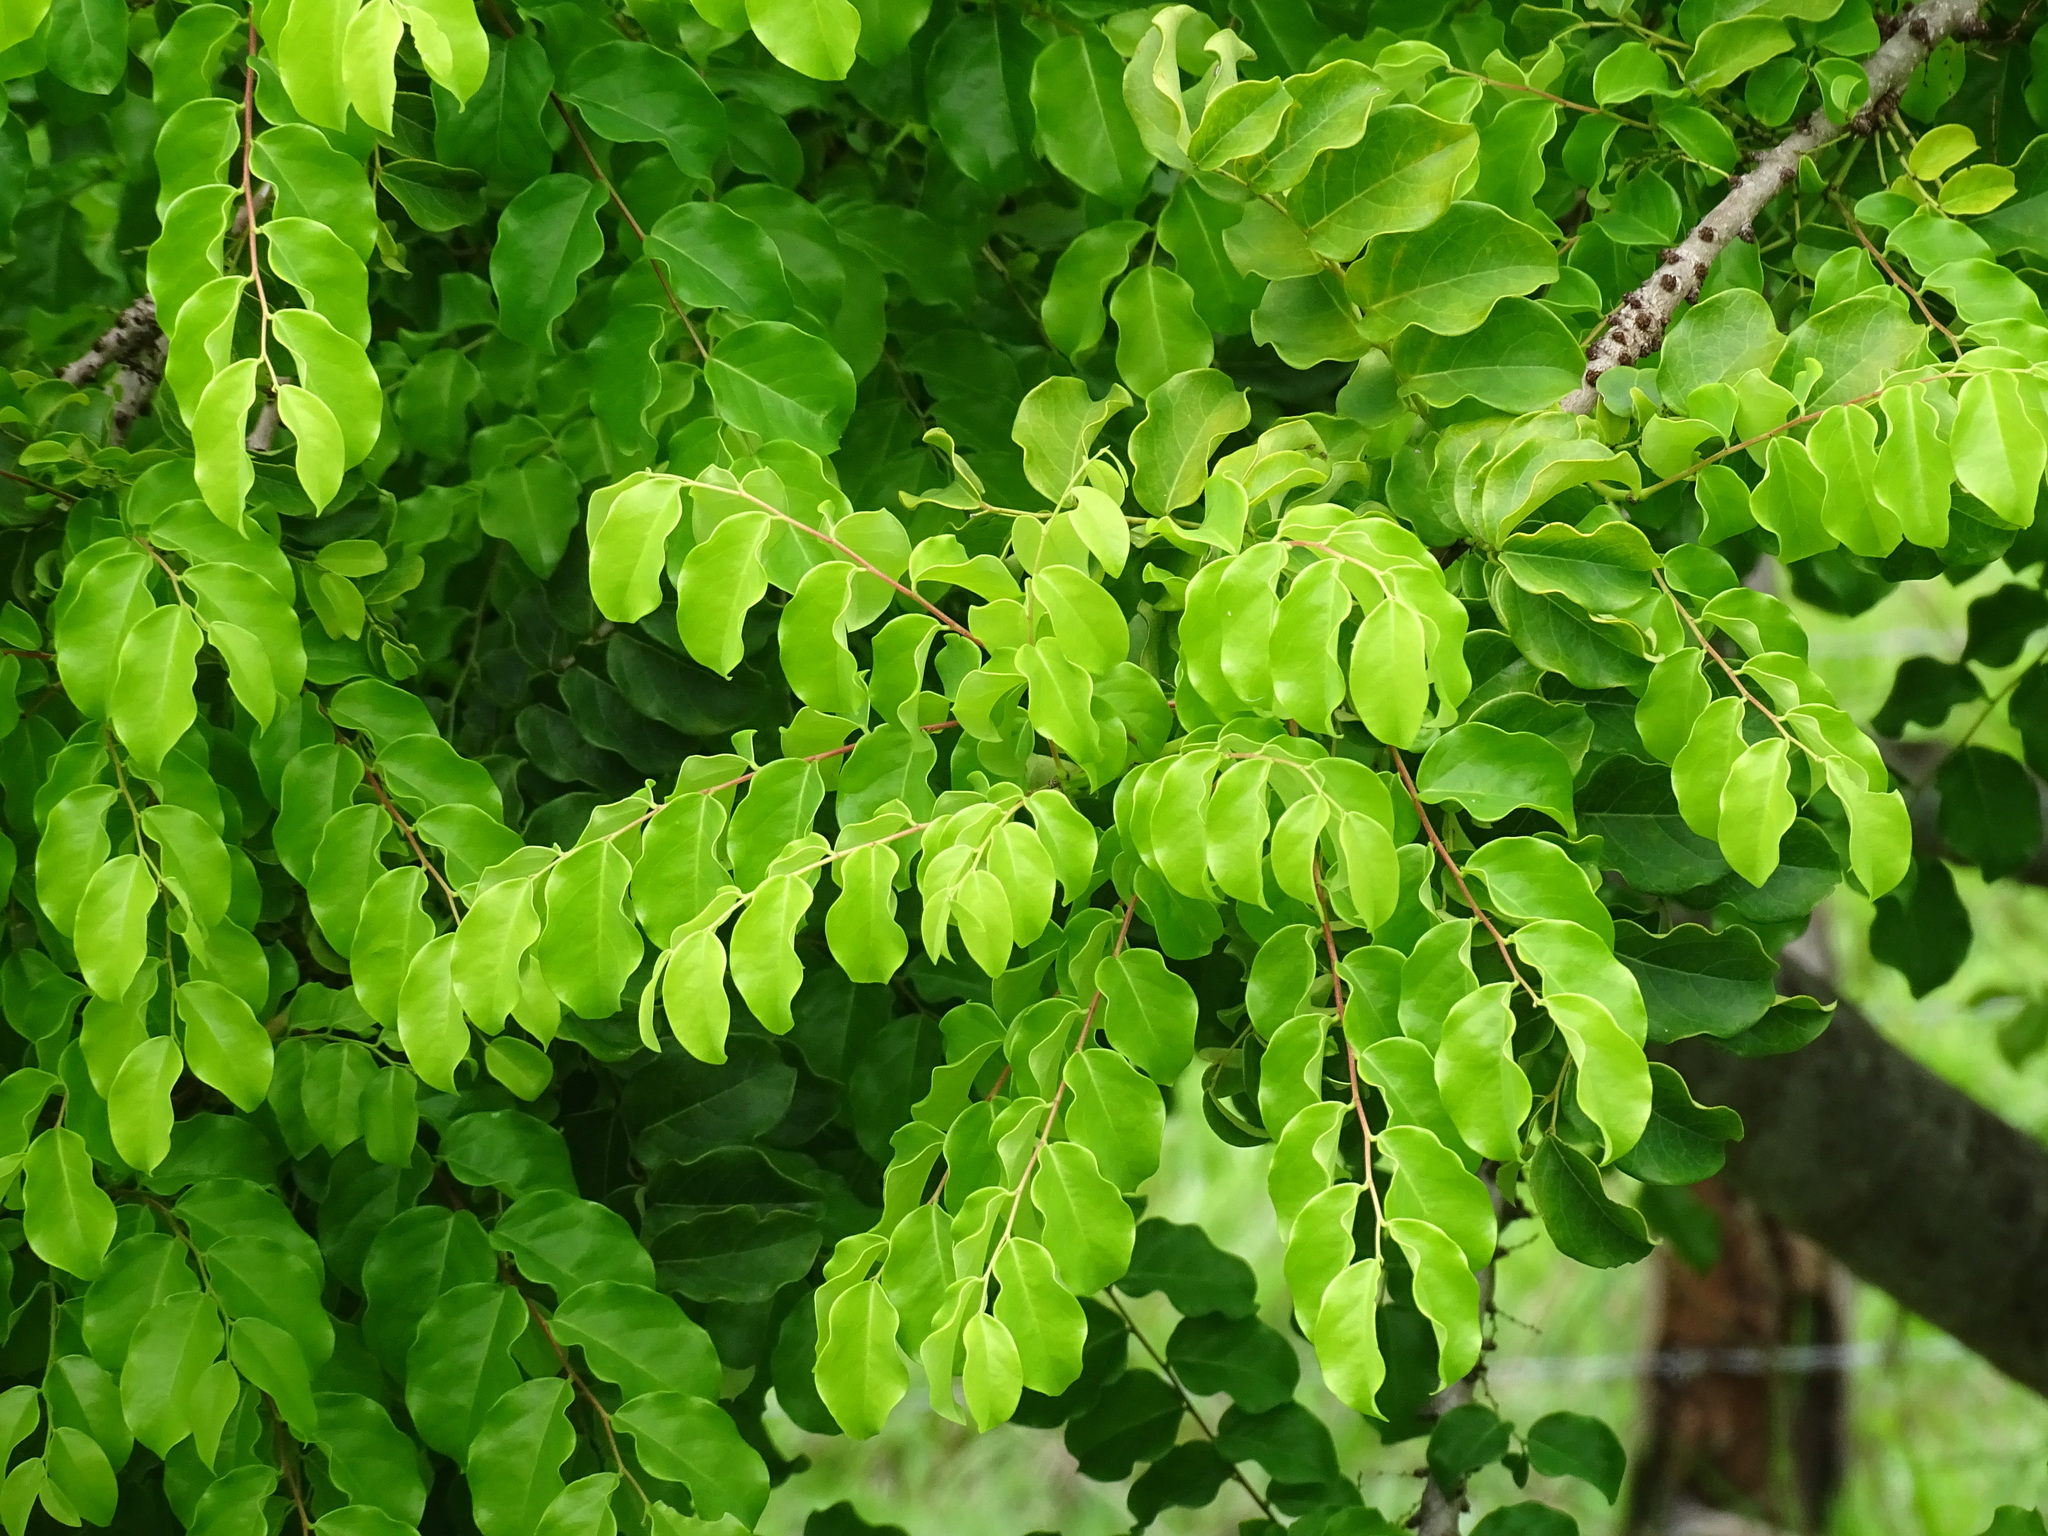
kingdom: Plantae
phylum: Tracheophyta
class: Magnoliopsida
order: Malpighiales
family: Phyllanthaceae
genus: Phyllanthus
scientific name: Phyllanthus acidus
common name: Tahitian gooseberry tree
